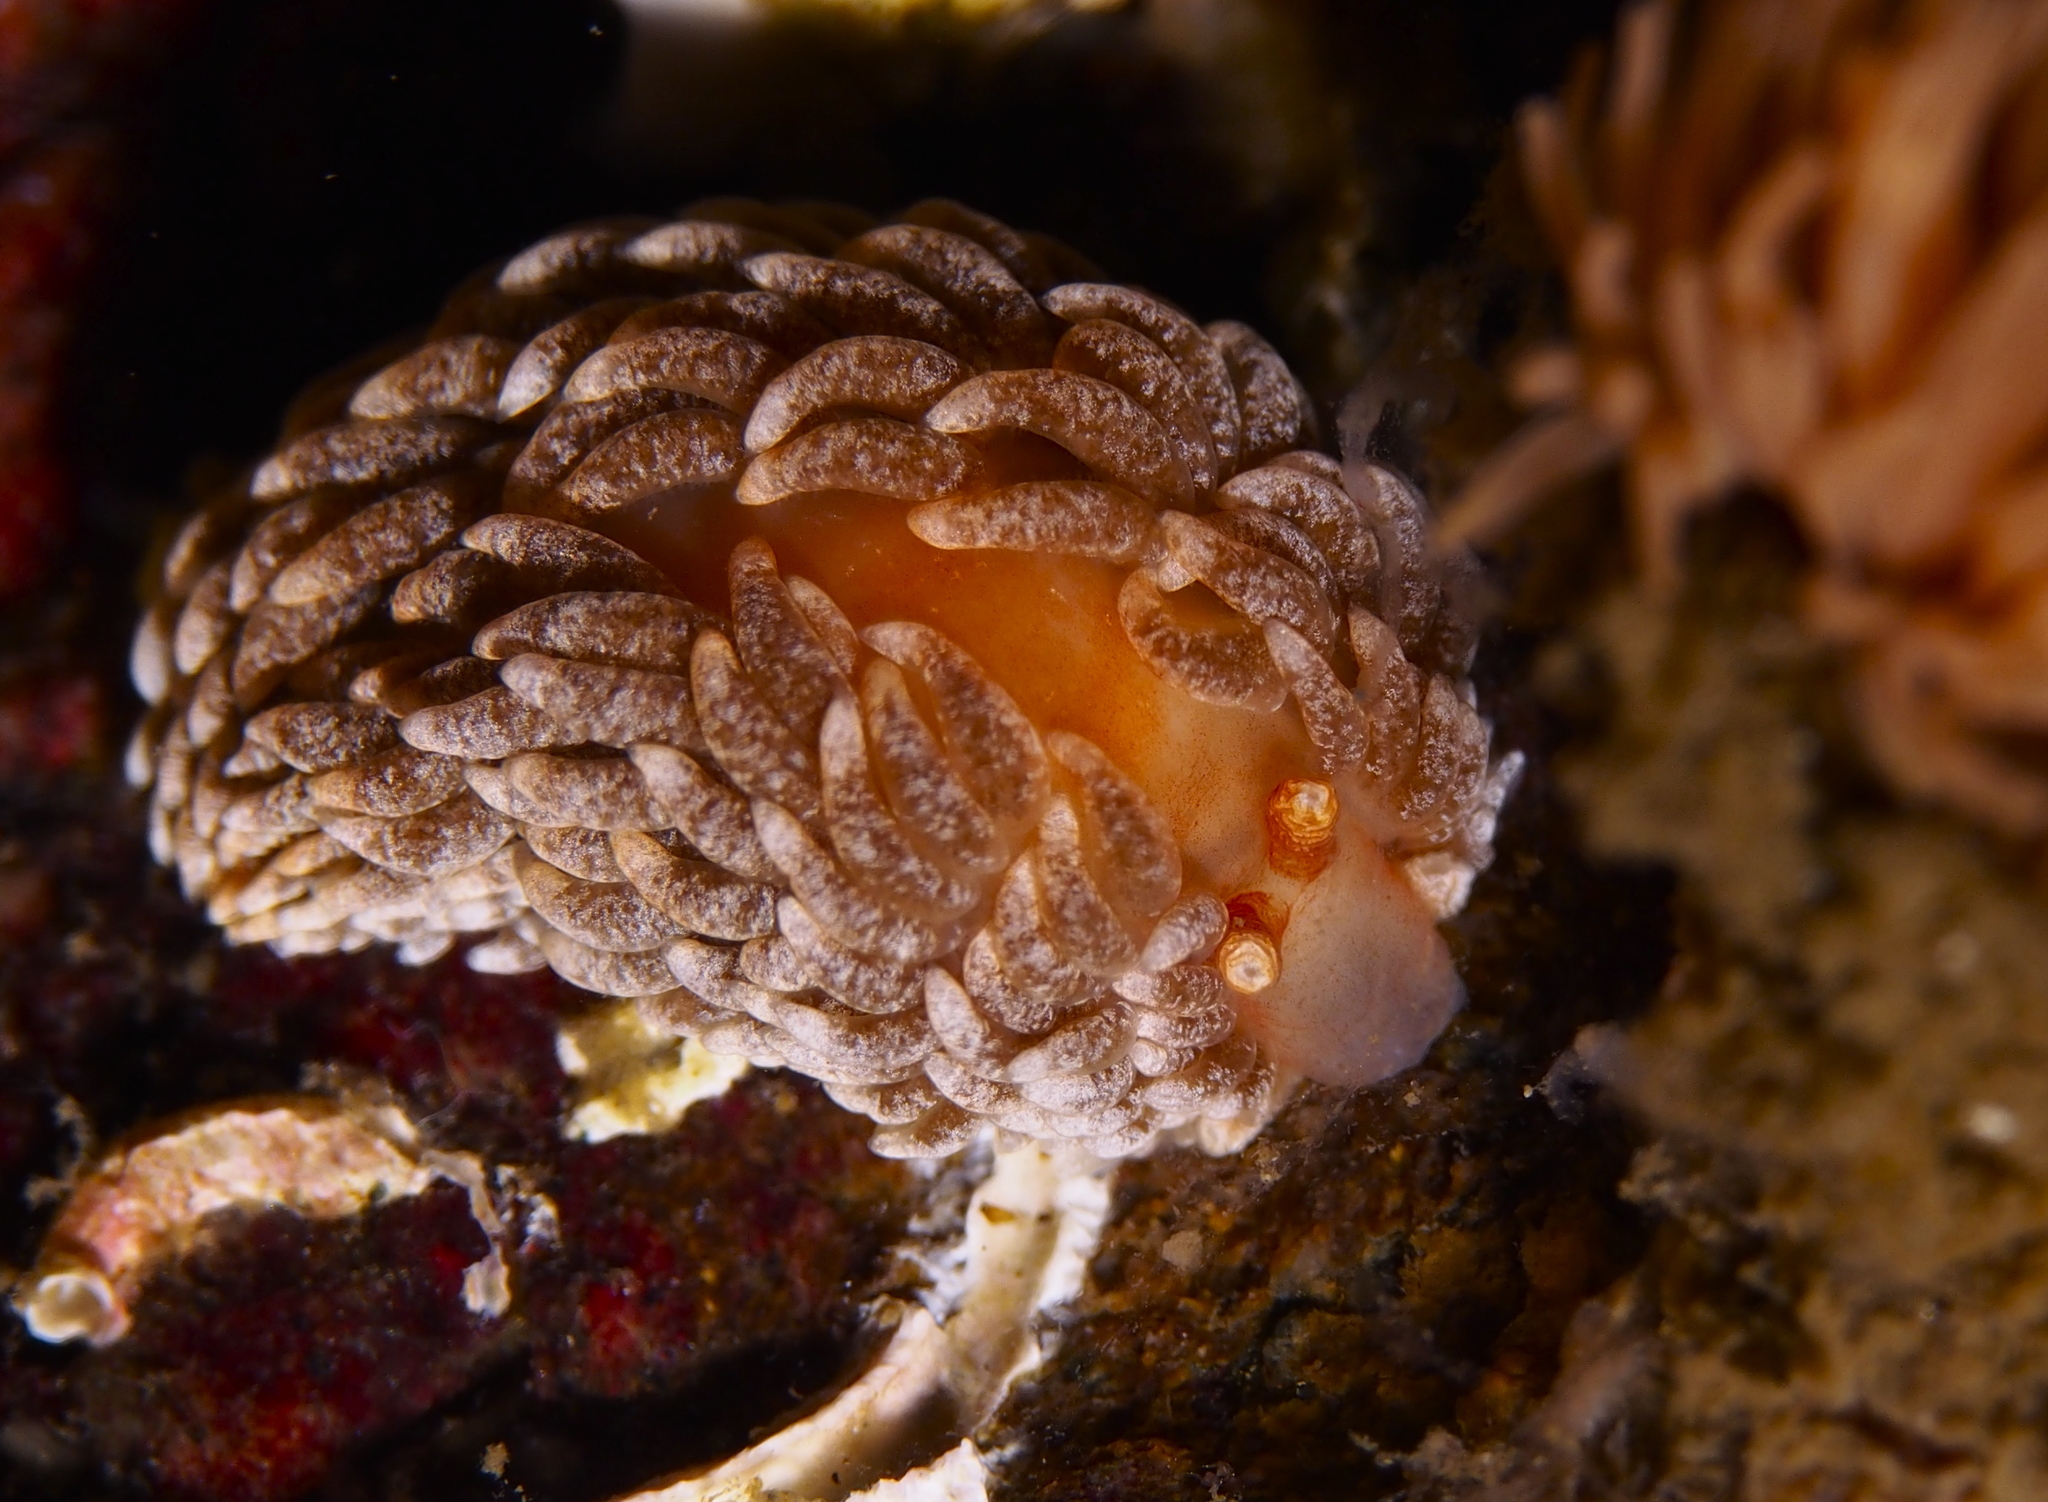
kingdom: Animalia
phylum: Mollusca
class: Gastropoda
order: Nudibranchia
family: Aeolidiidae
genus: Aeolidiella
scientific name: Aeolidiella glauca
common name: Orange-brown aeolid
